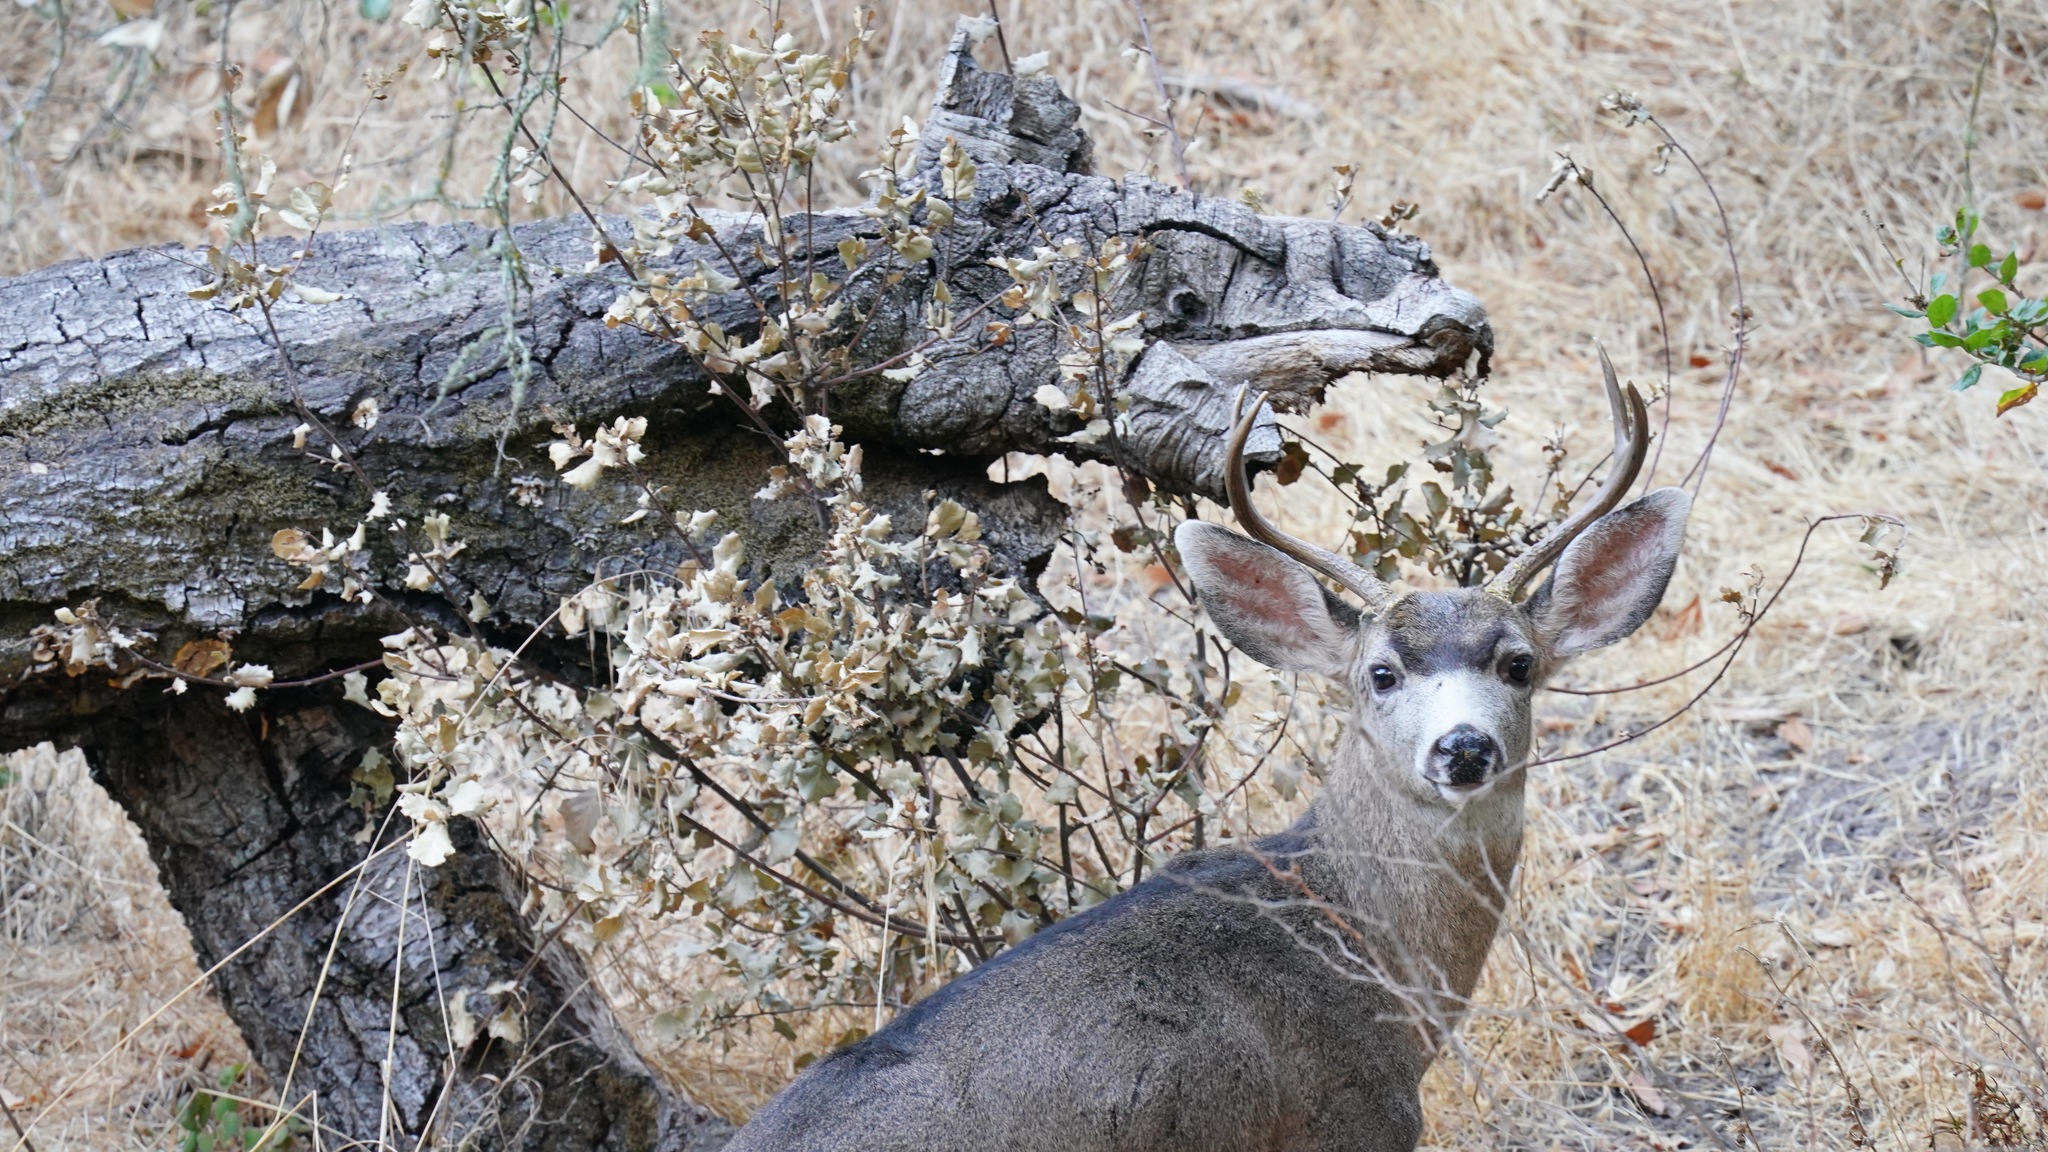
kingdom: Animalia
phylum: Chordata
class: Mammalia
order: Artiodactyla
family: Cervidae
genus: Odocoileus
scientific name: Odocoileus hemionus
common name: Mule deer
